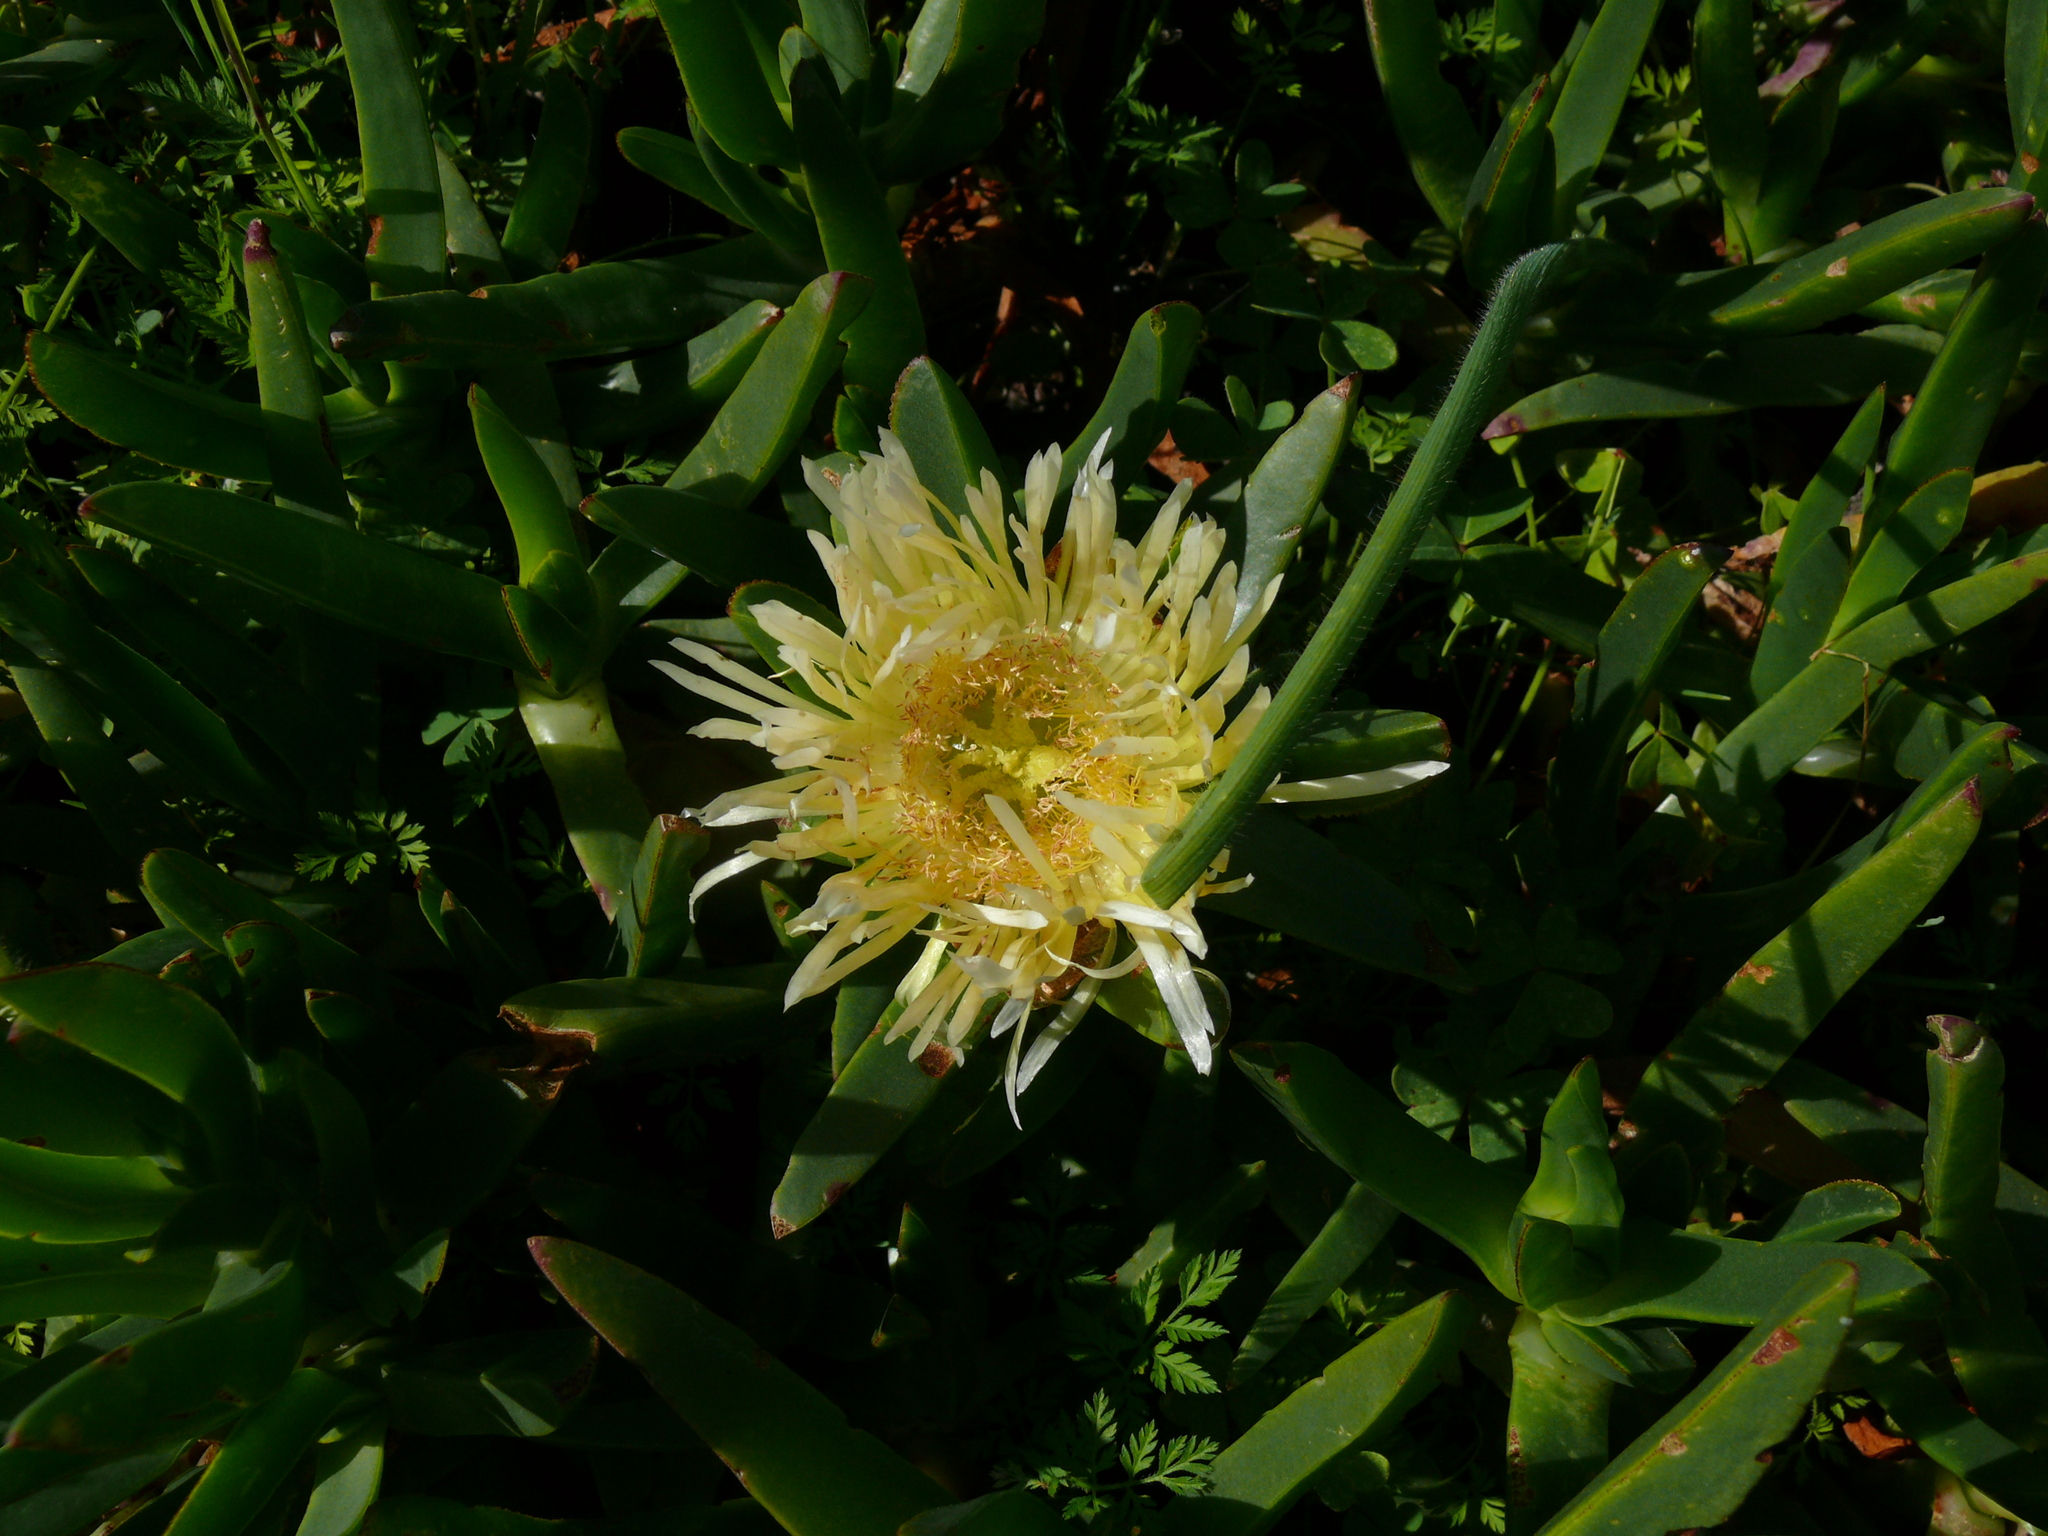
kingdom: Plantae
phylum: Tracheophyta
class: Magnoliopsida
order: Caryophyllales
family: Aizoaceae
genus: Carpobrotus
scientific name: Carpobrotus edulis
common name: Hottentot-fig
